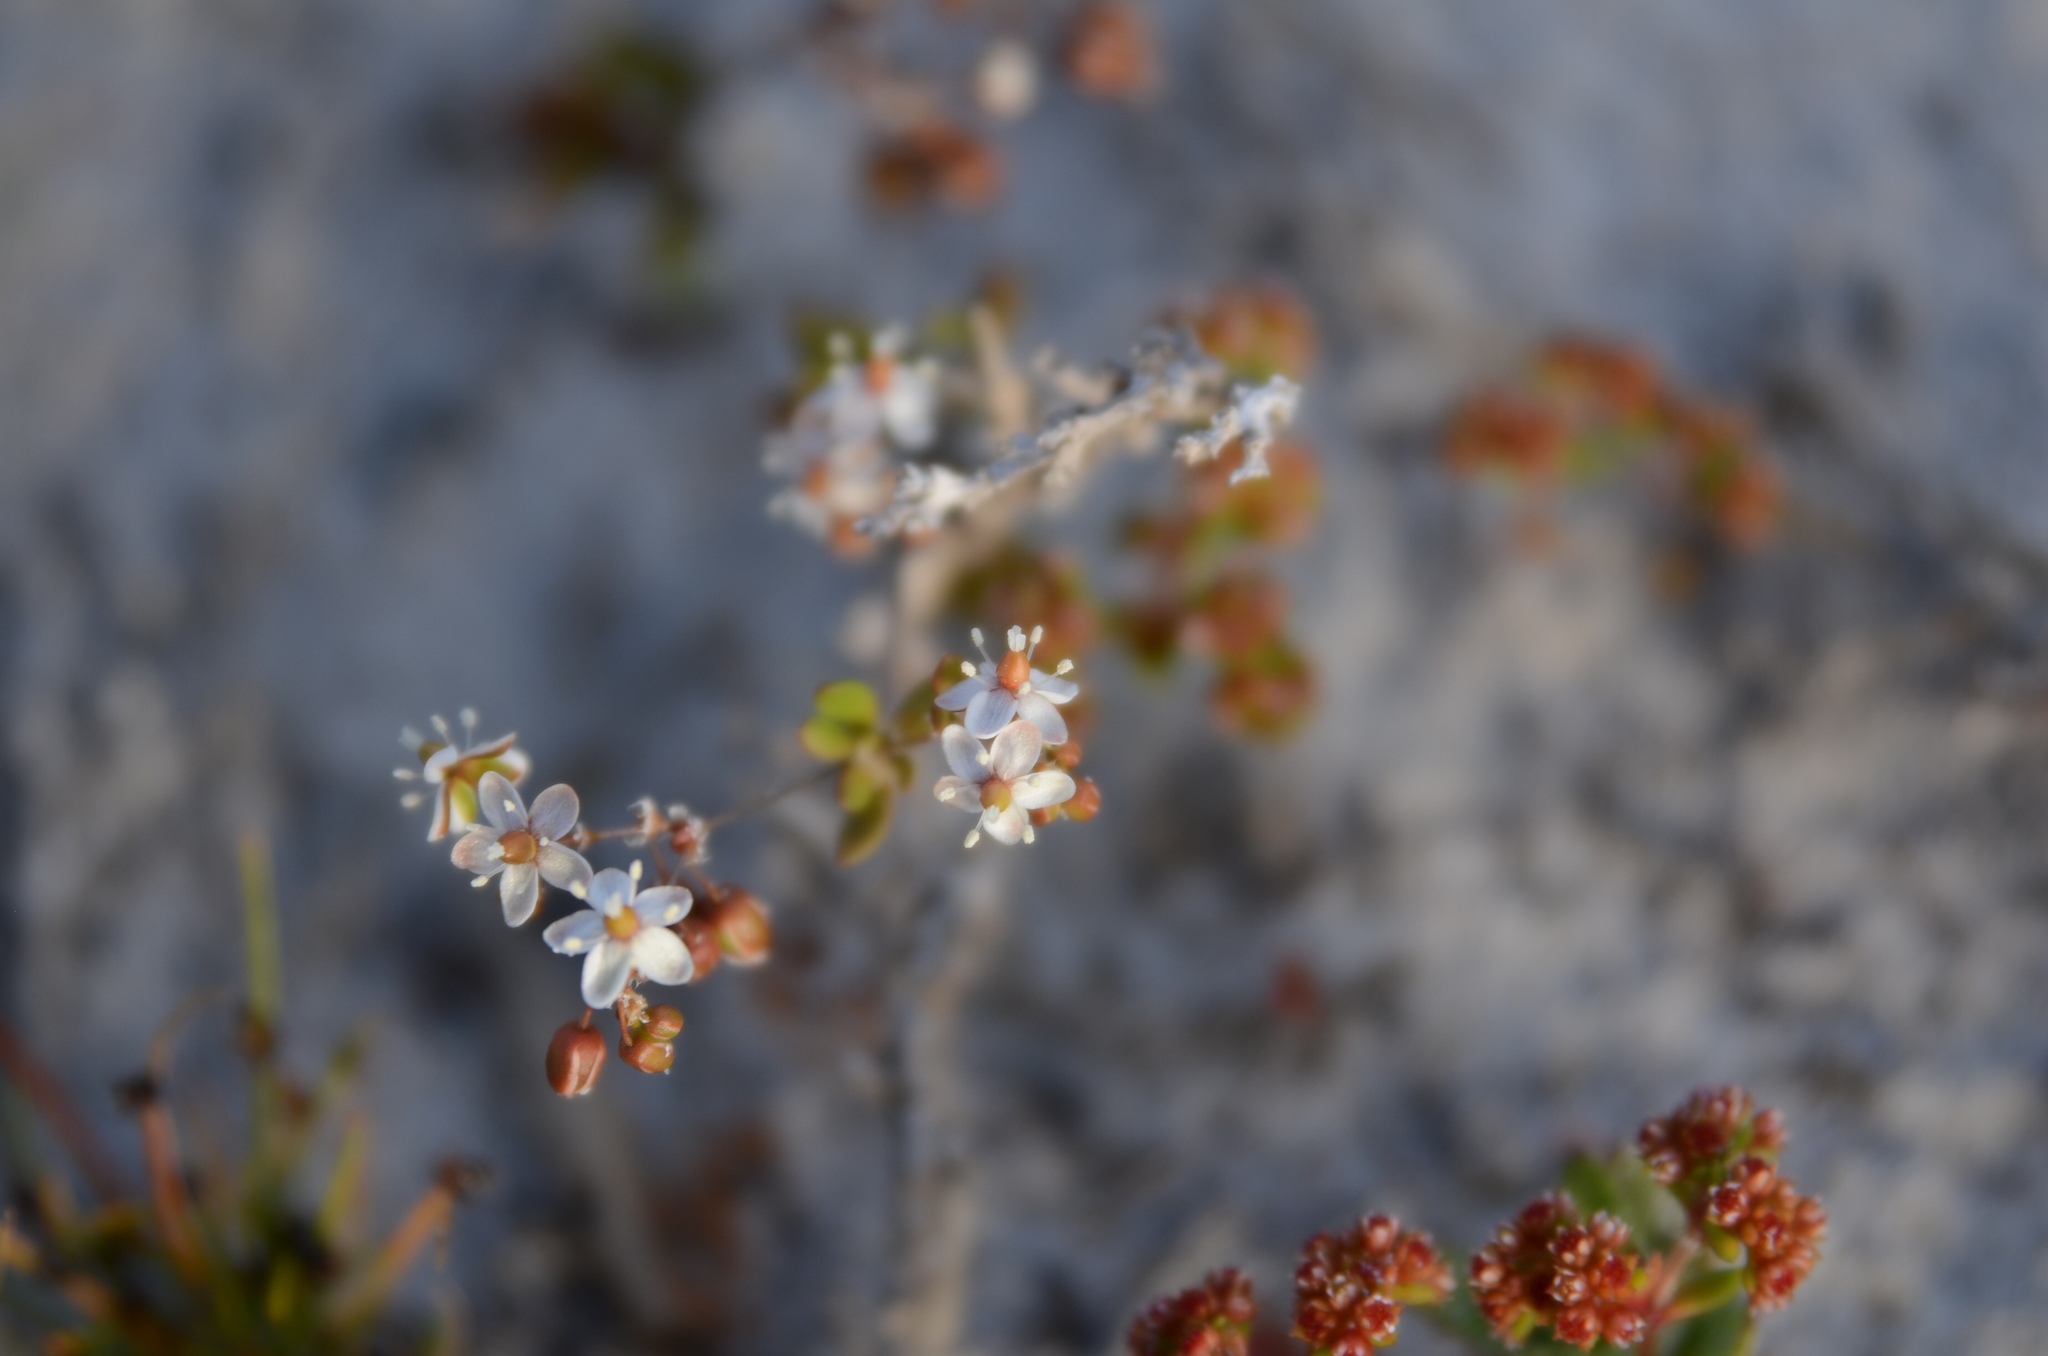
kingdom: Plantae
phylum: Tracheophyta
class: Magnoliopsida
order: Caryophyllales
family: Molluginaceae
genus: Pharnaceum
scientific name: Pharnaceum cordifolium
